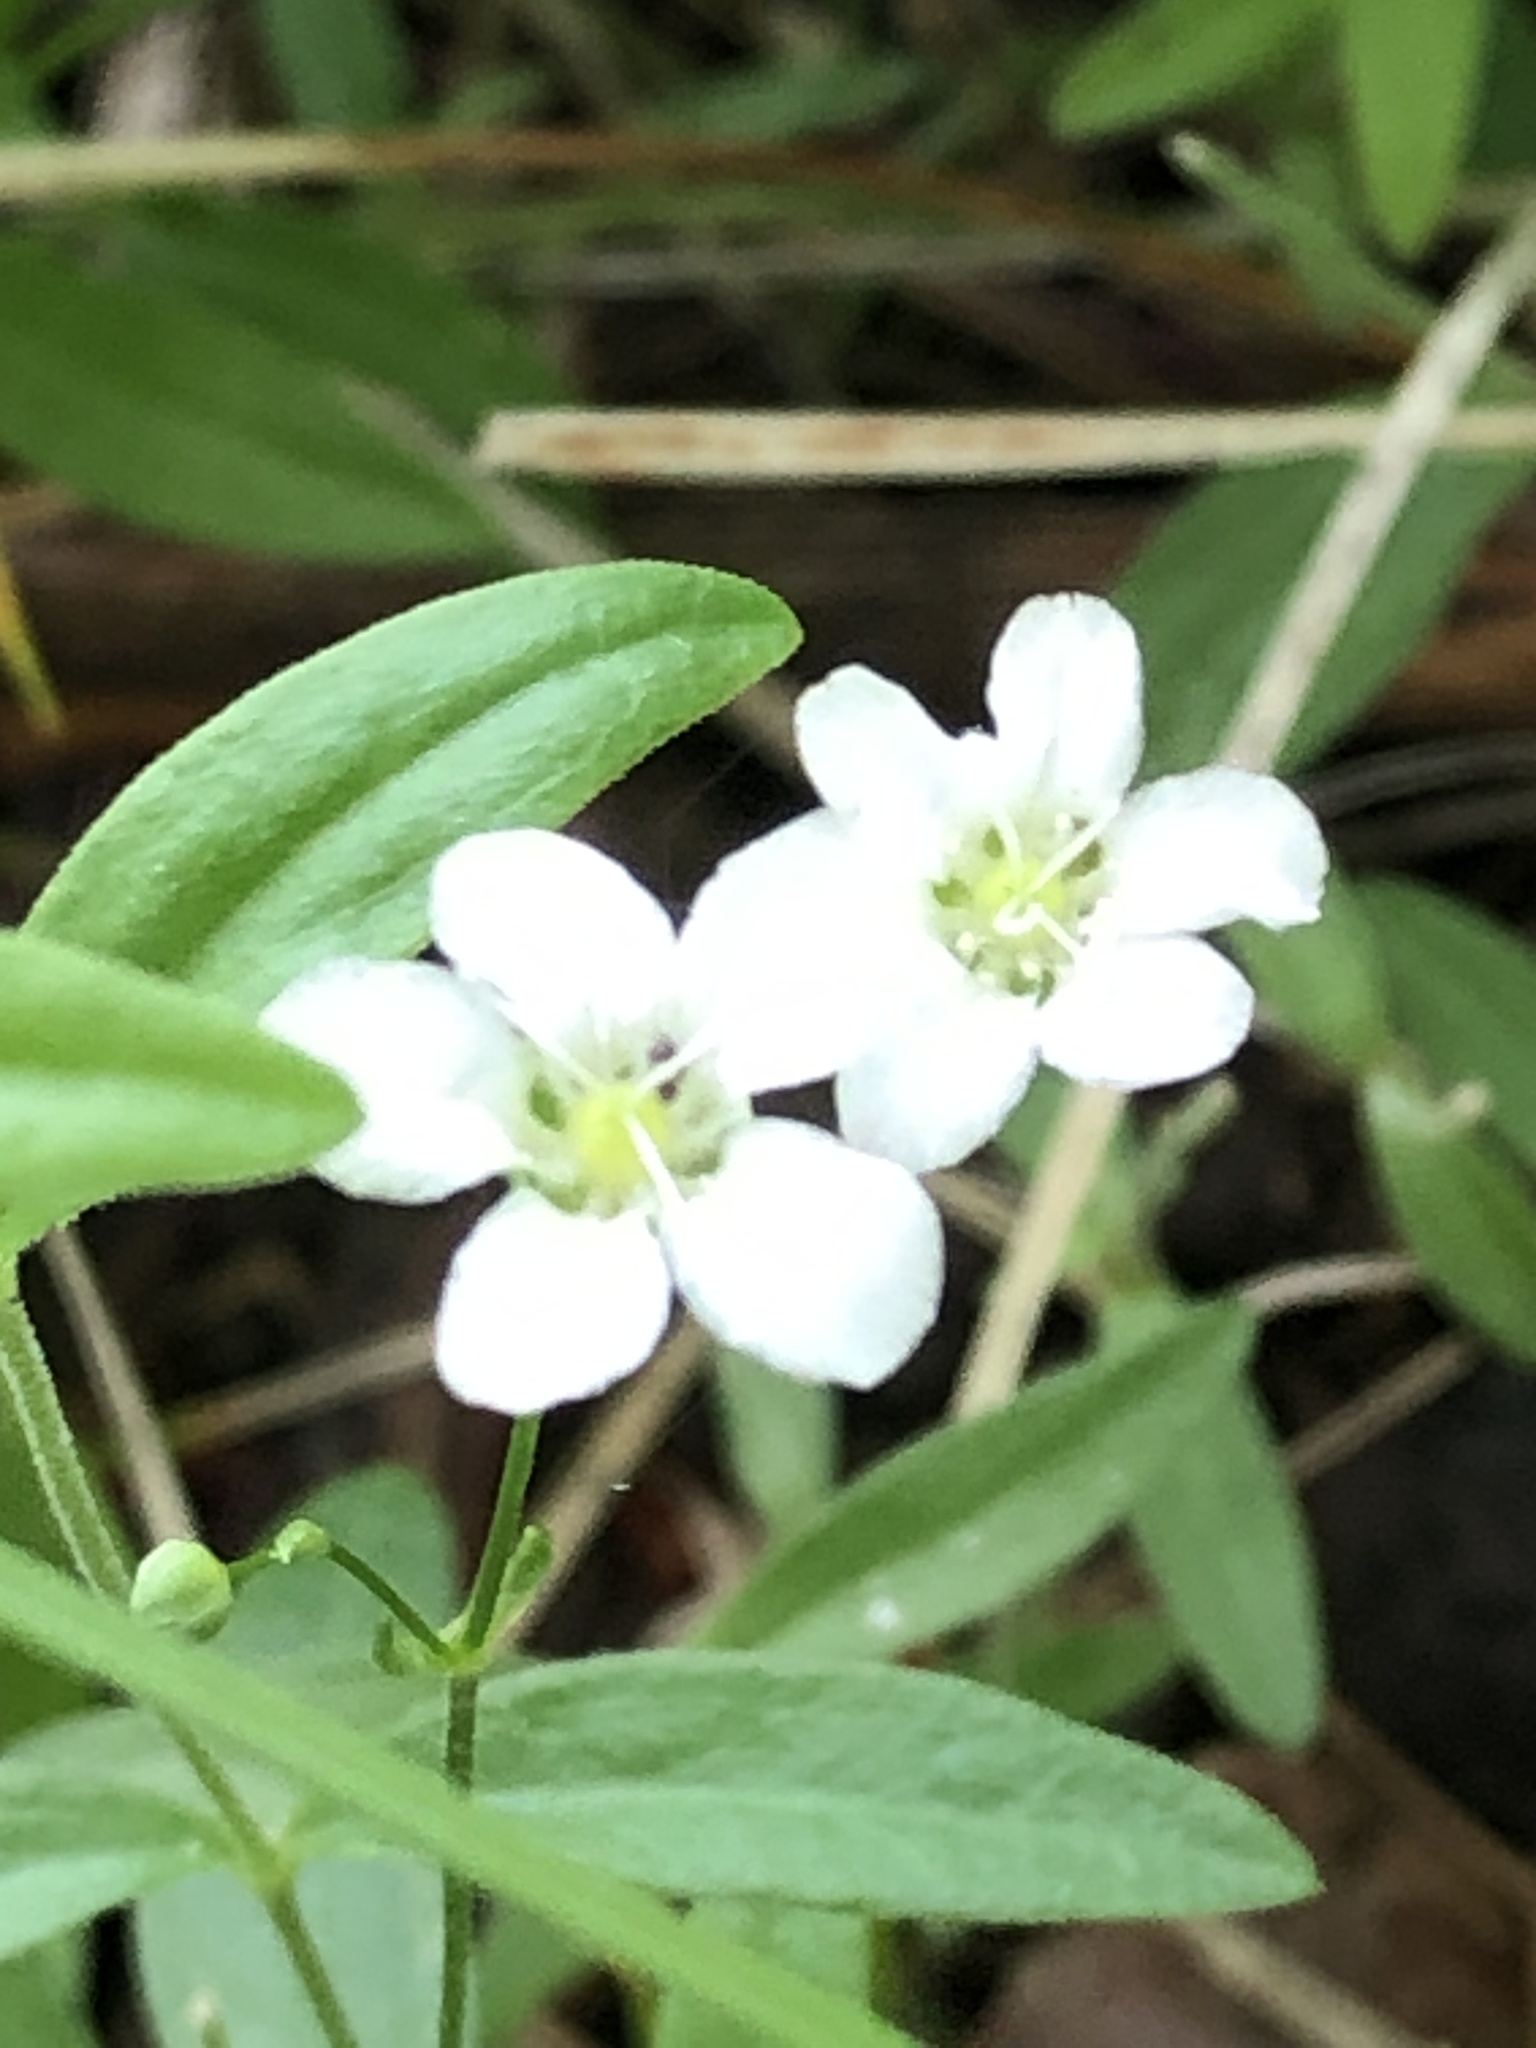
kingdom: Plantae
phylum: Tracheophyta
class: Magnoliopsida
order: Caryophyllales
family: Caryophyllaceae
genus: Moehringia
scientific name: Moehringia lateriflora
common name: Blunt-leaved sandwort
